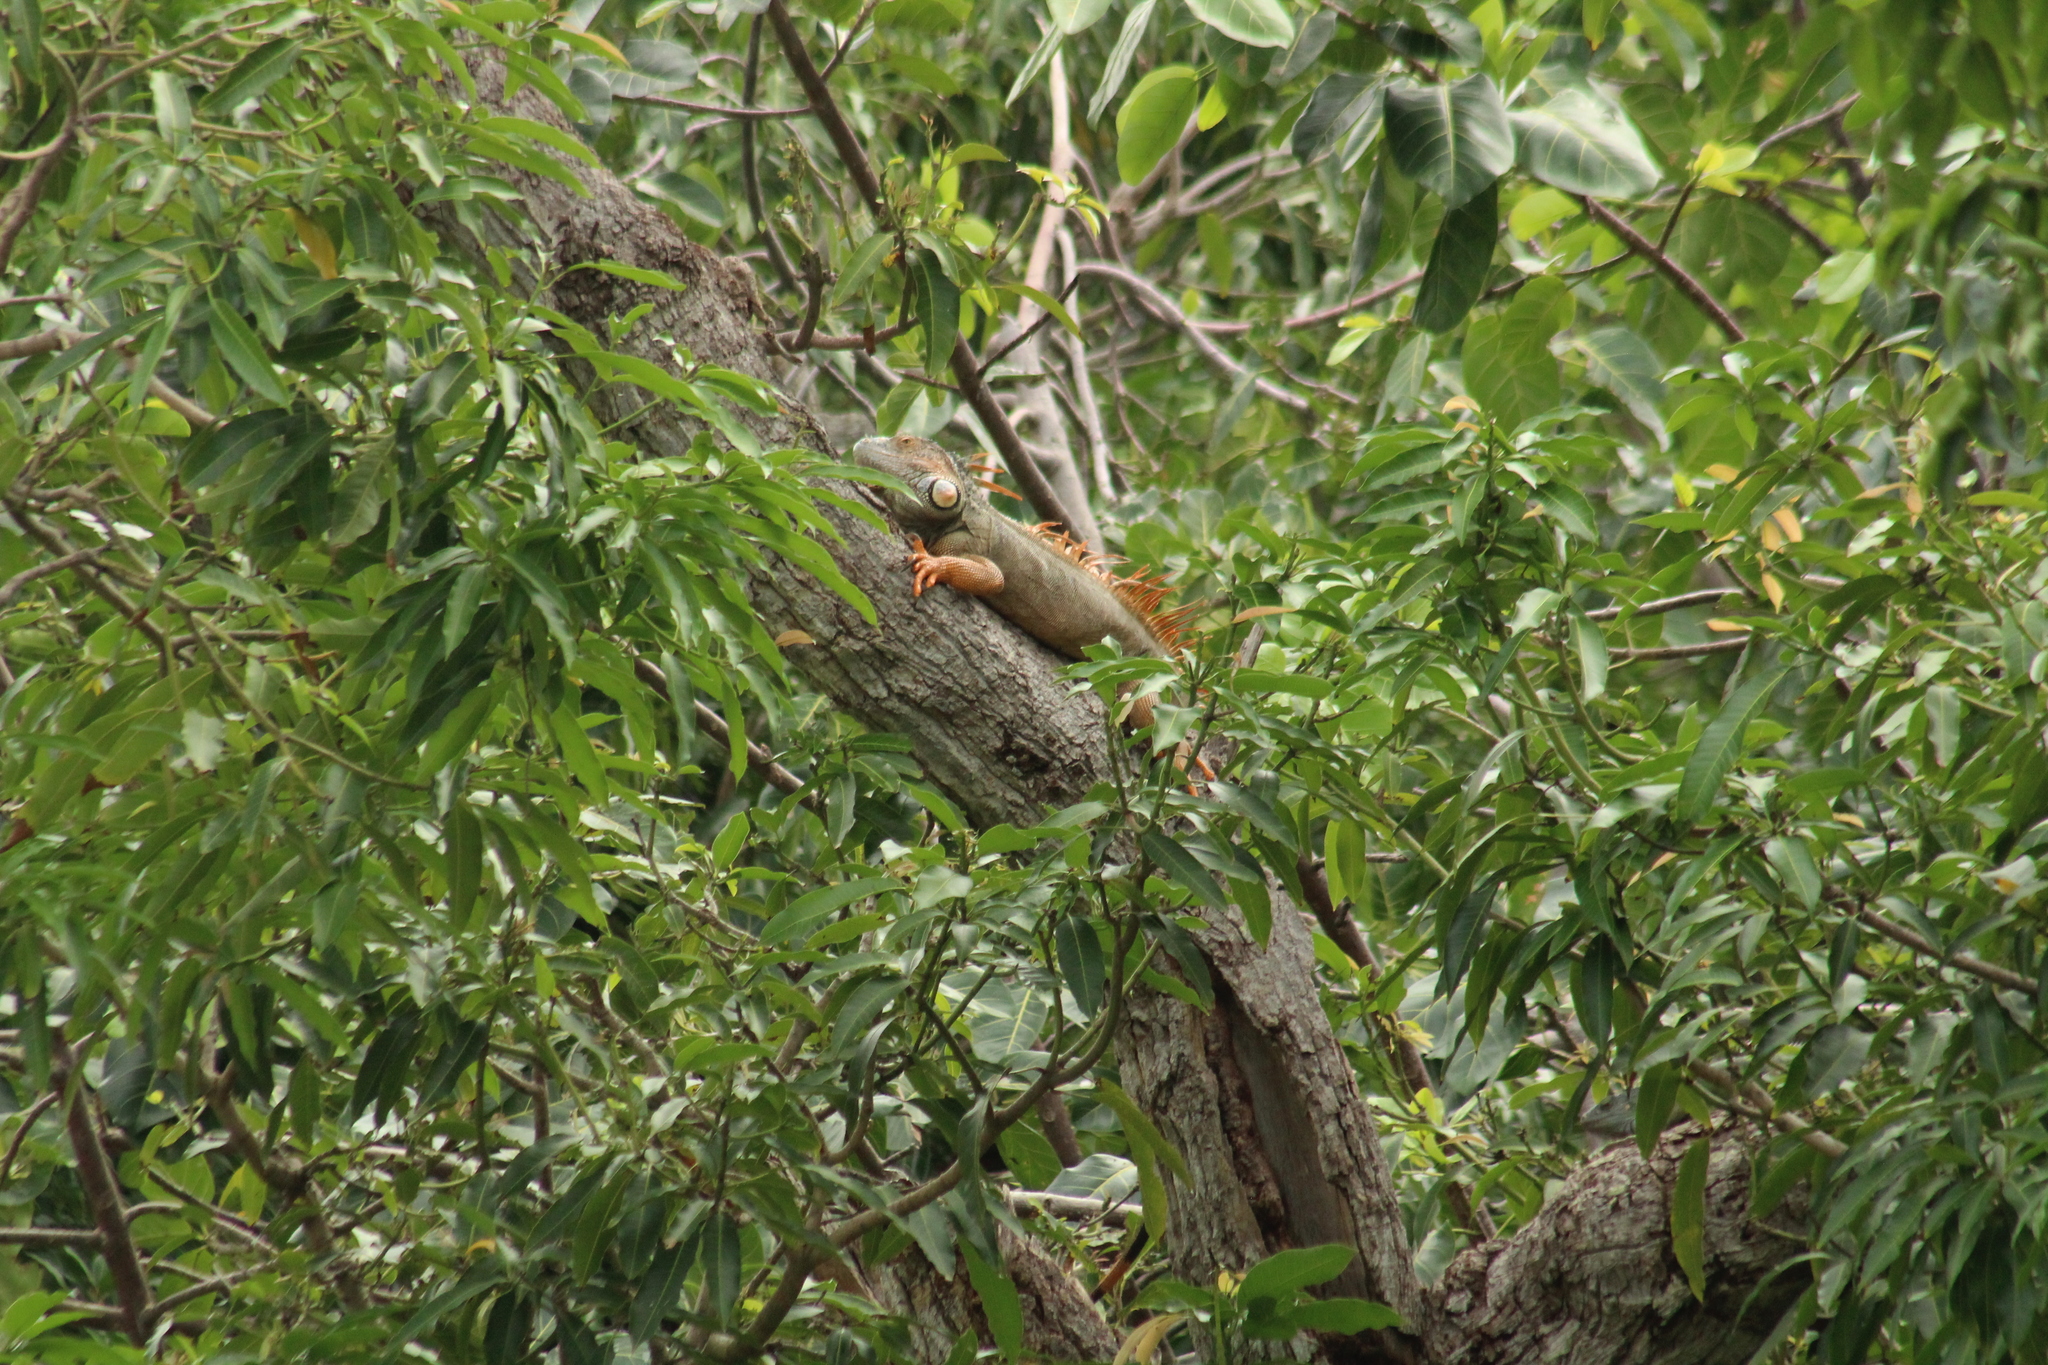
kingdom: Animalia
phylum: Chordata
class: Squamata
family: Iguanidae
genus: Iguana
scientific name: Iguana iguana
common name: Green iguana
